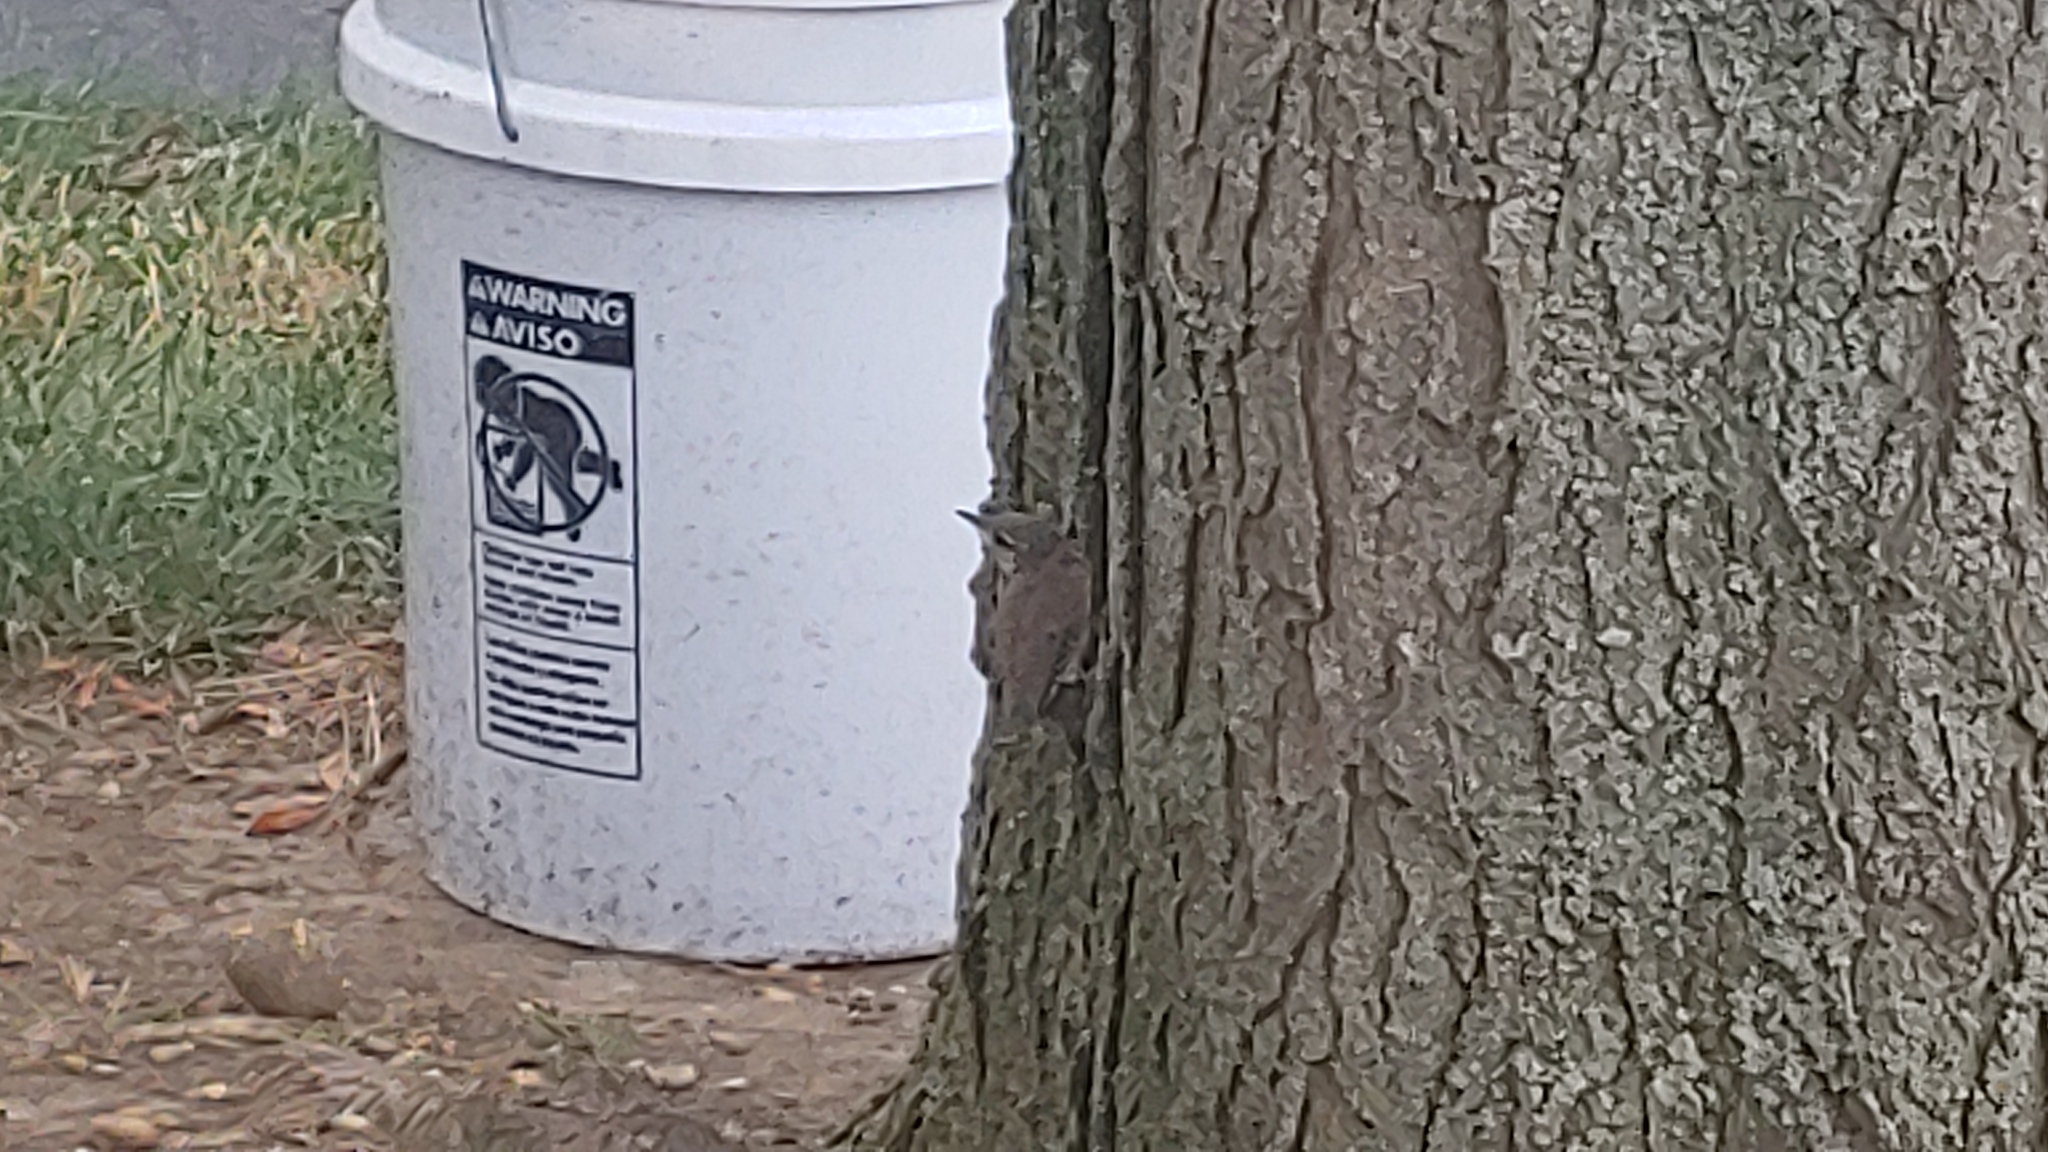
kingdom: Animalia
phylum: Chordata
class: Aves
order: Passeriformes
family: Troglodytidae
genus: Troglodytes
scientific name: Troglodytes aedon
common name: House wren
